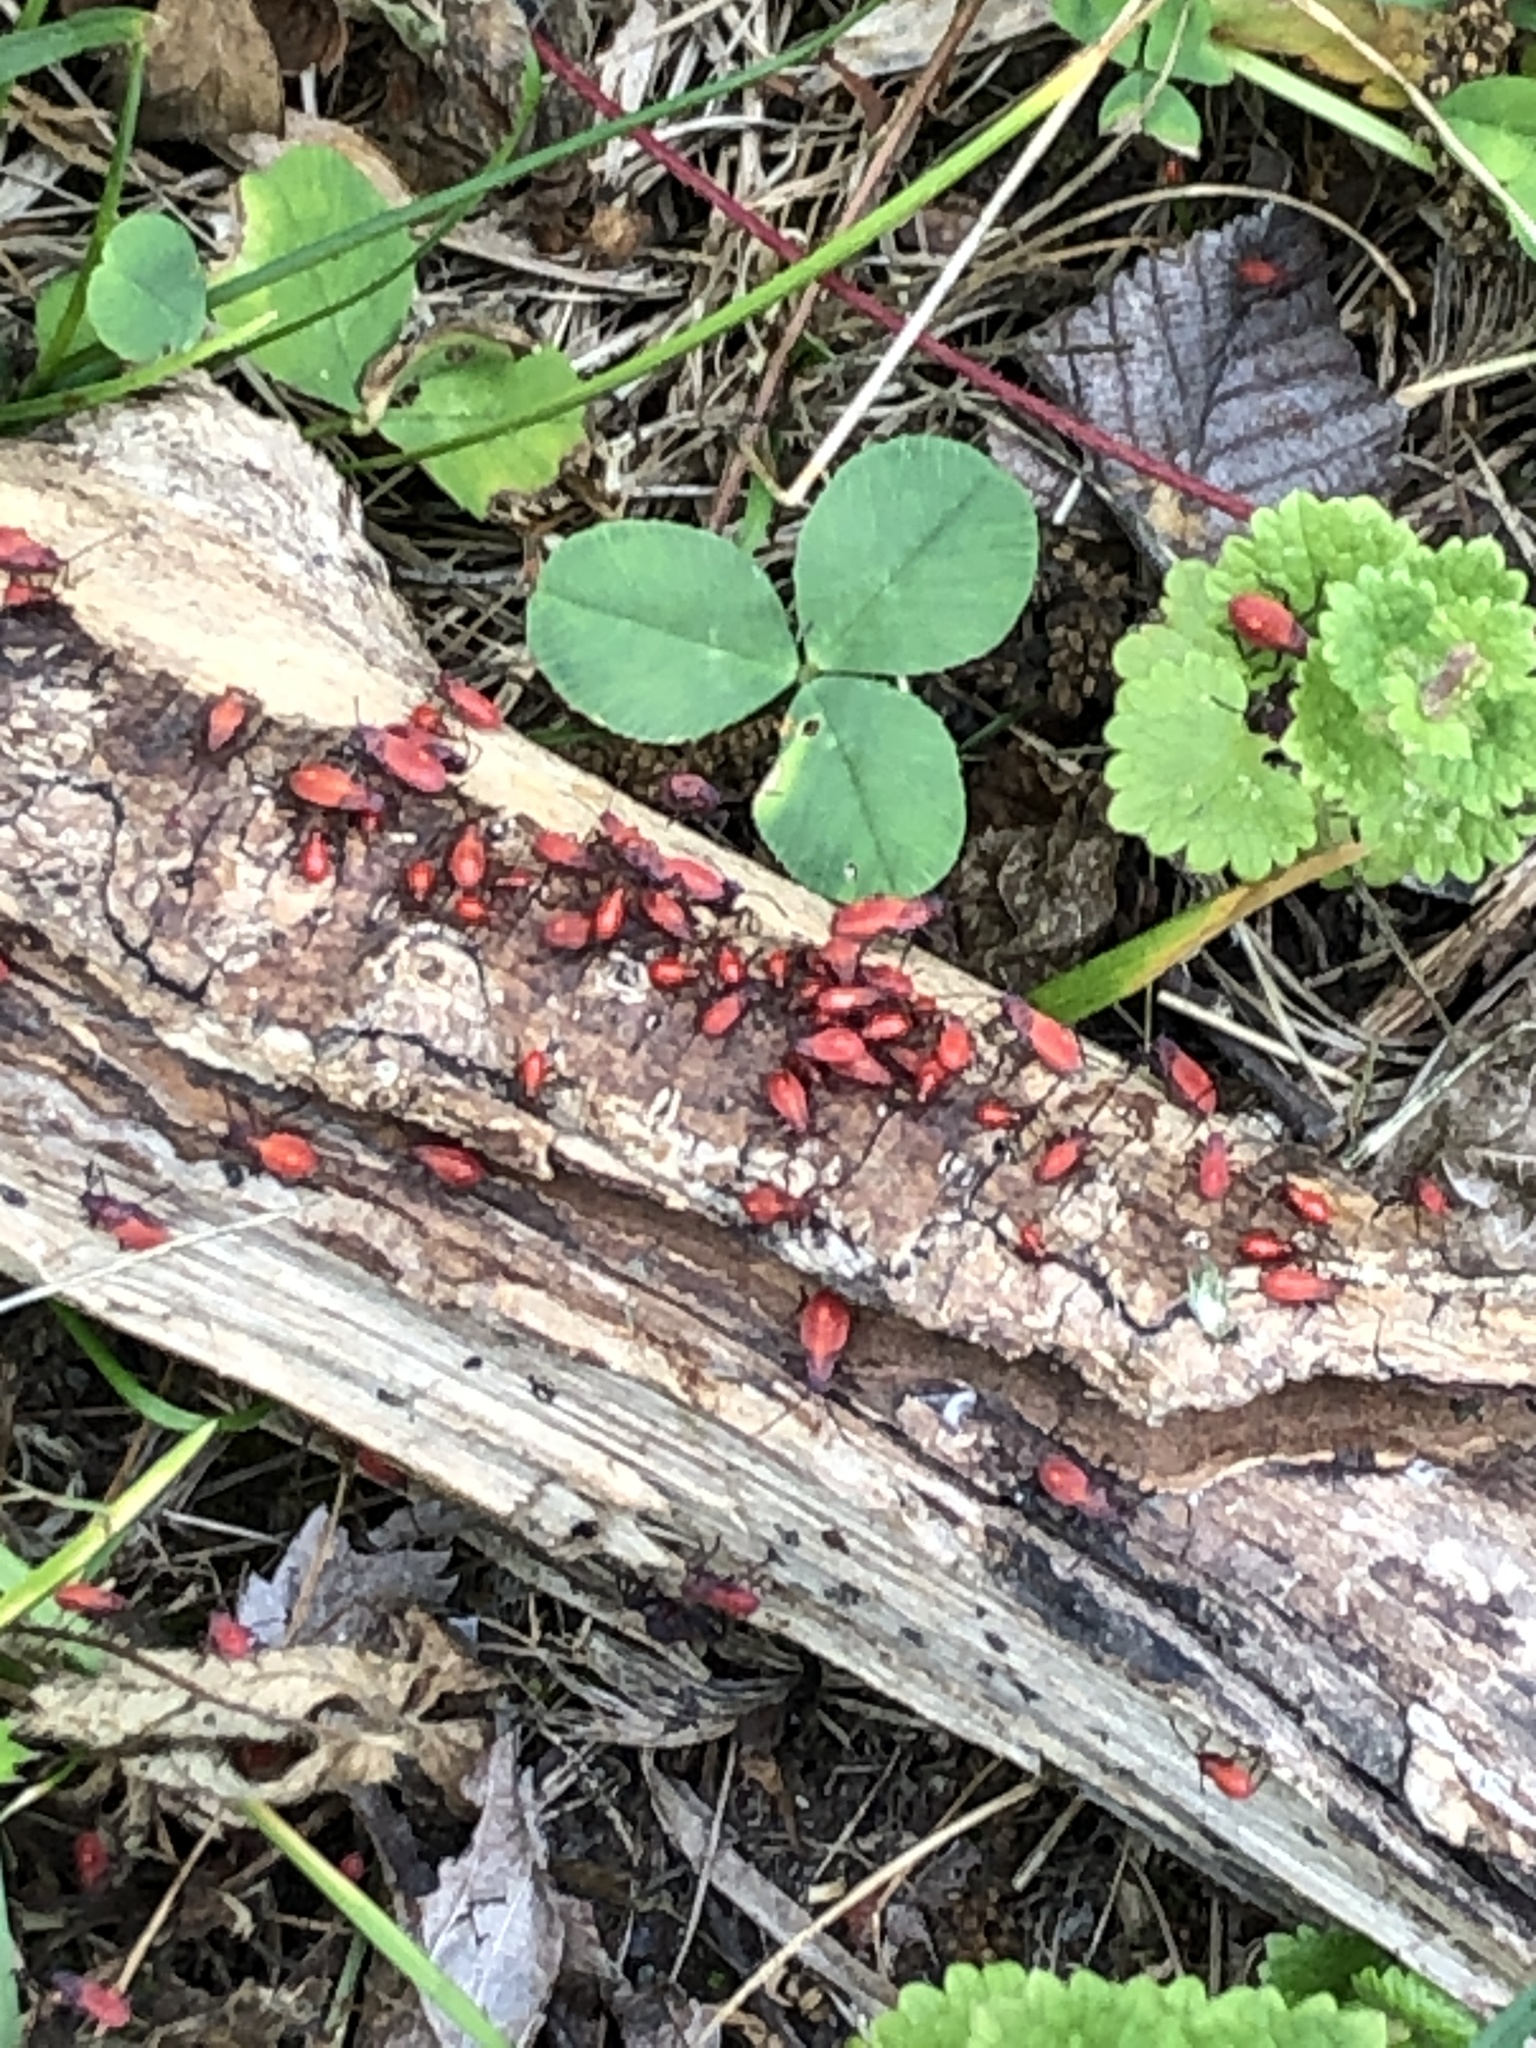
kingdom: Animalia
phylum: Arthropoda
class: Insecta
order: Hemiptera
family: Rhopalidae
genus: Boisea
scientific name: Boisea trivittata
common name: Boxelder bug
